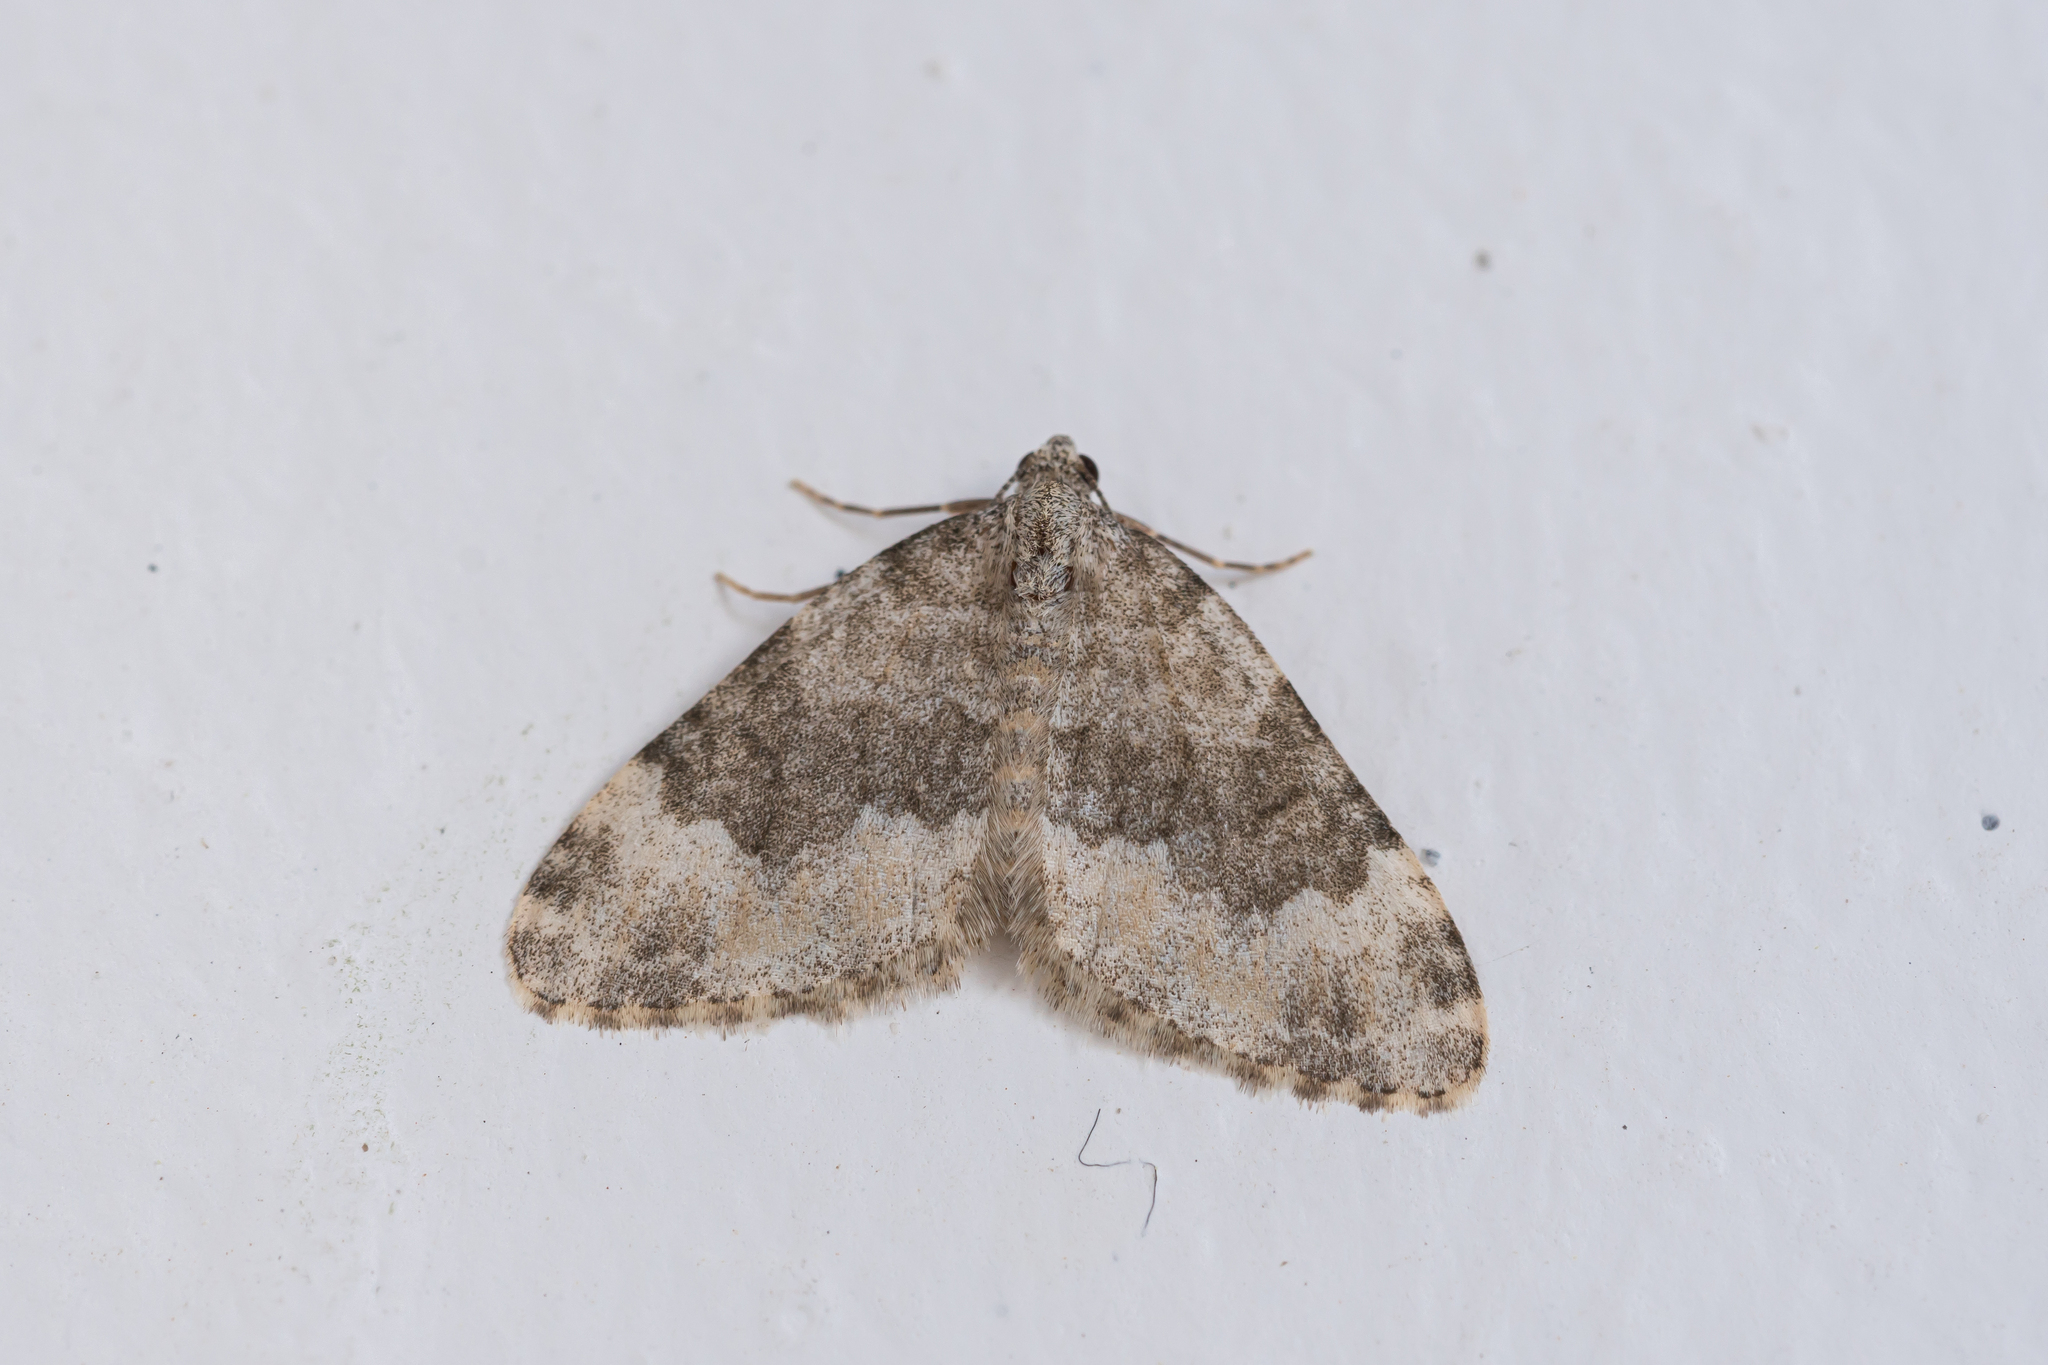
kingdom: Animalia
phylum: Arthropoda
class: Insecta
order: Lepidoptera
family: Geometridae
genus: Nebula
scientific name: Nebula Coenotephria schneideraria
